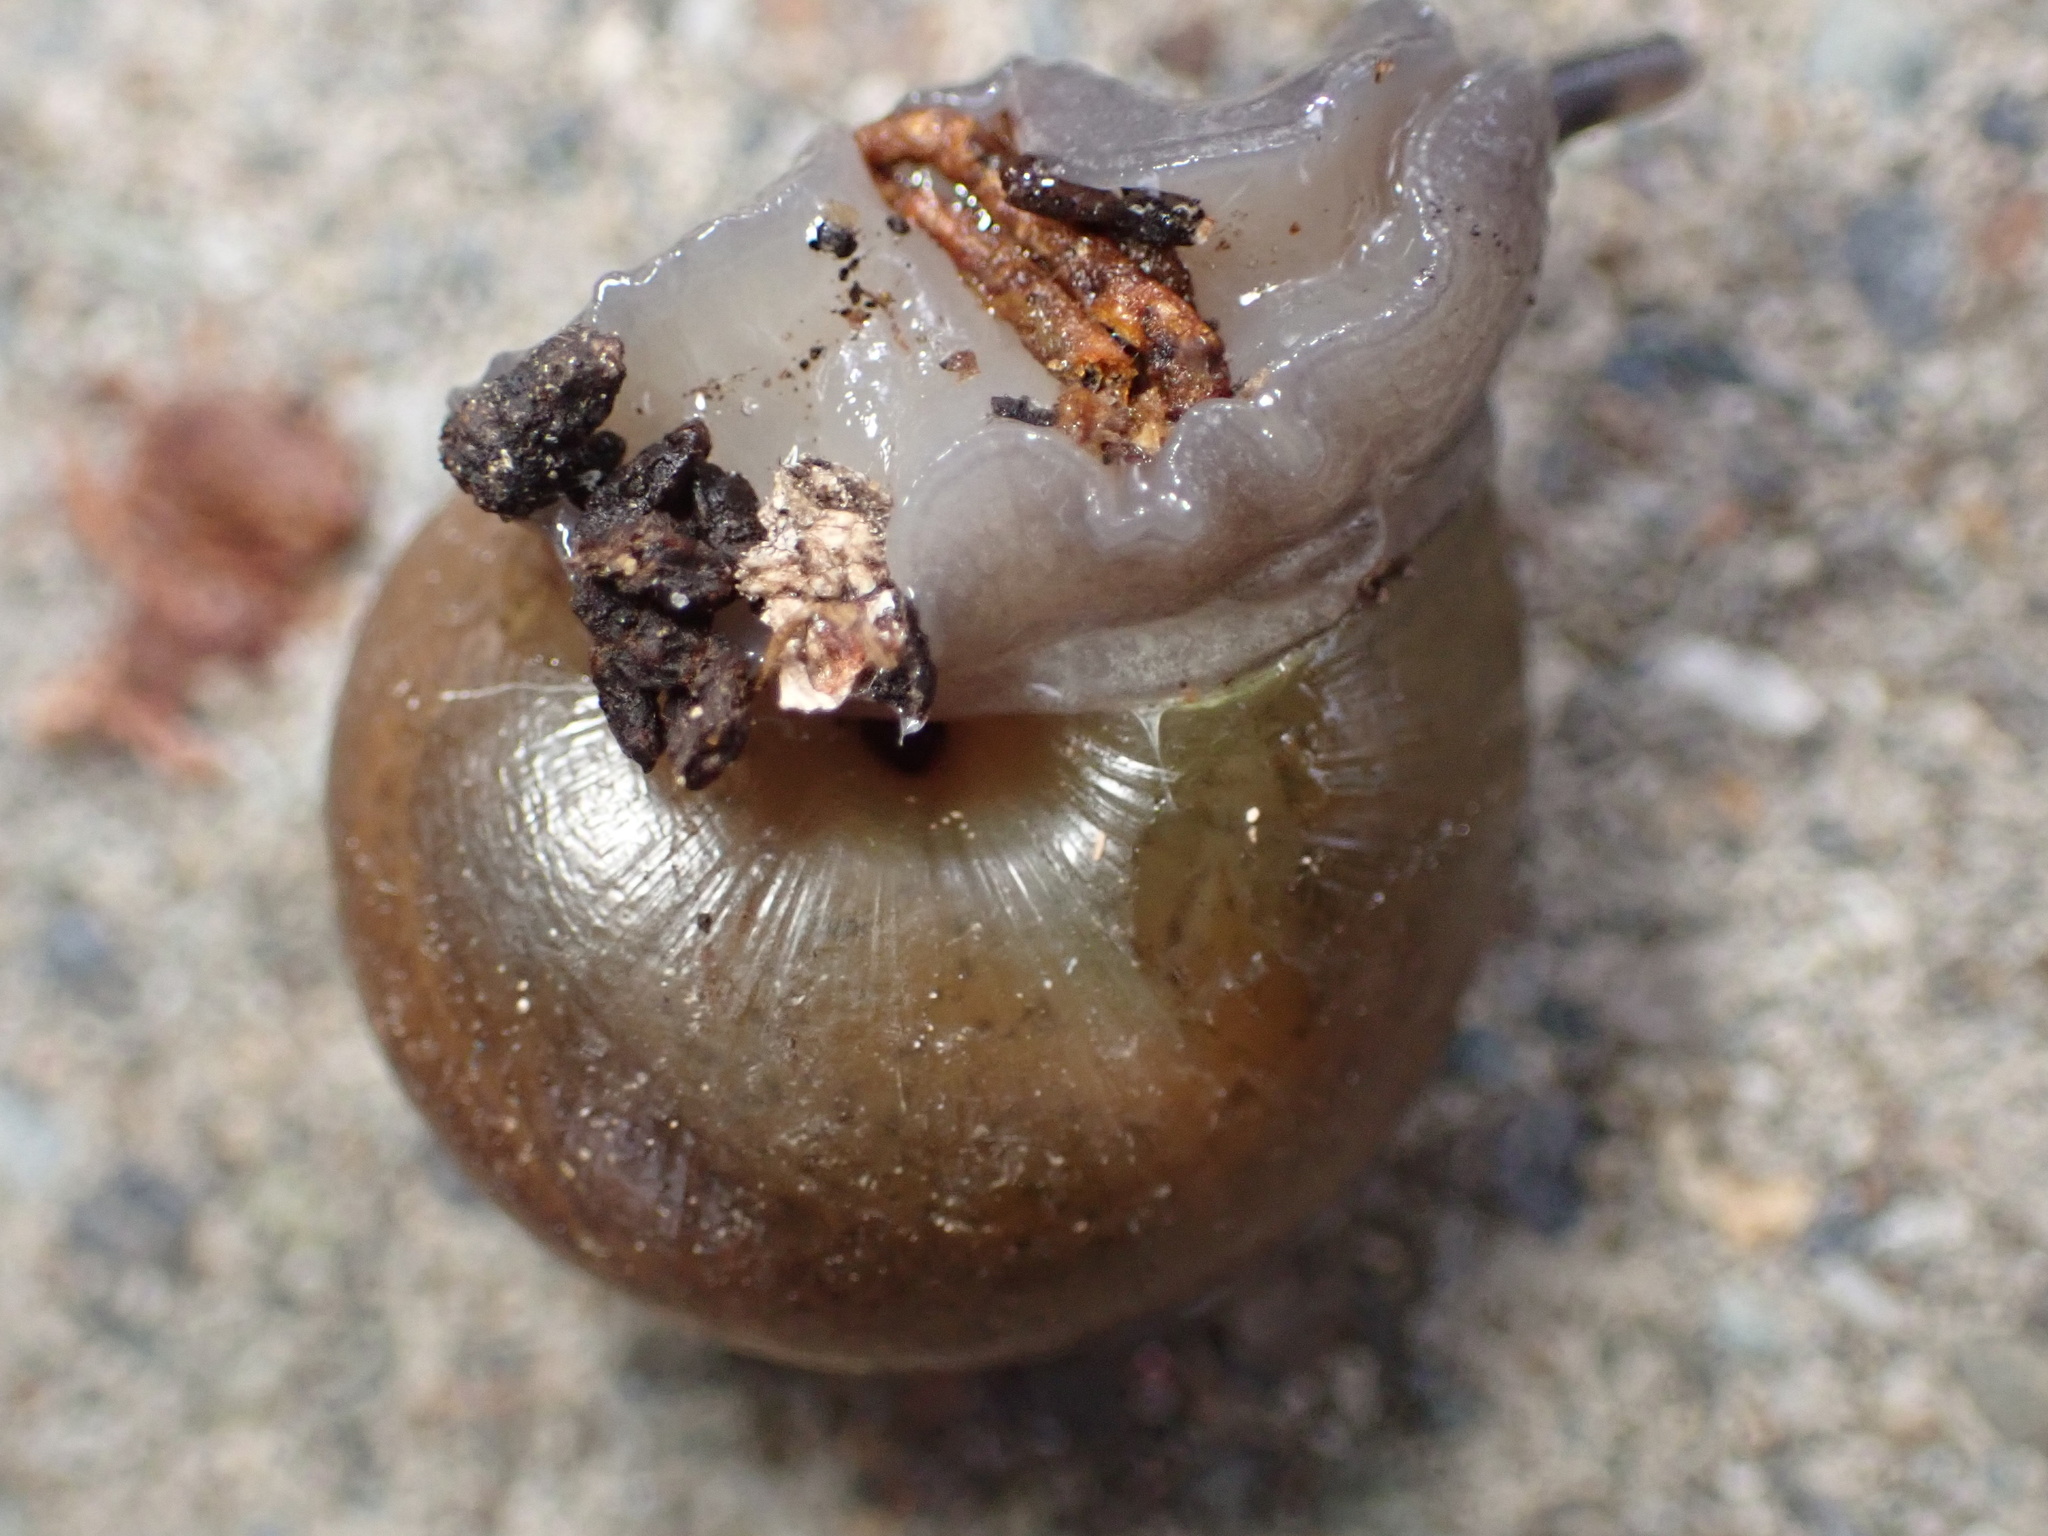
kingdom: Animalia
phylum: Mollusca
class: Gastropoda
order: Stylommatophora
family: Xanthonychidae
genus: Helminthoglypta
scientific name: Helminthoglypta tudiculata
